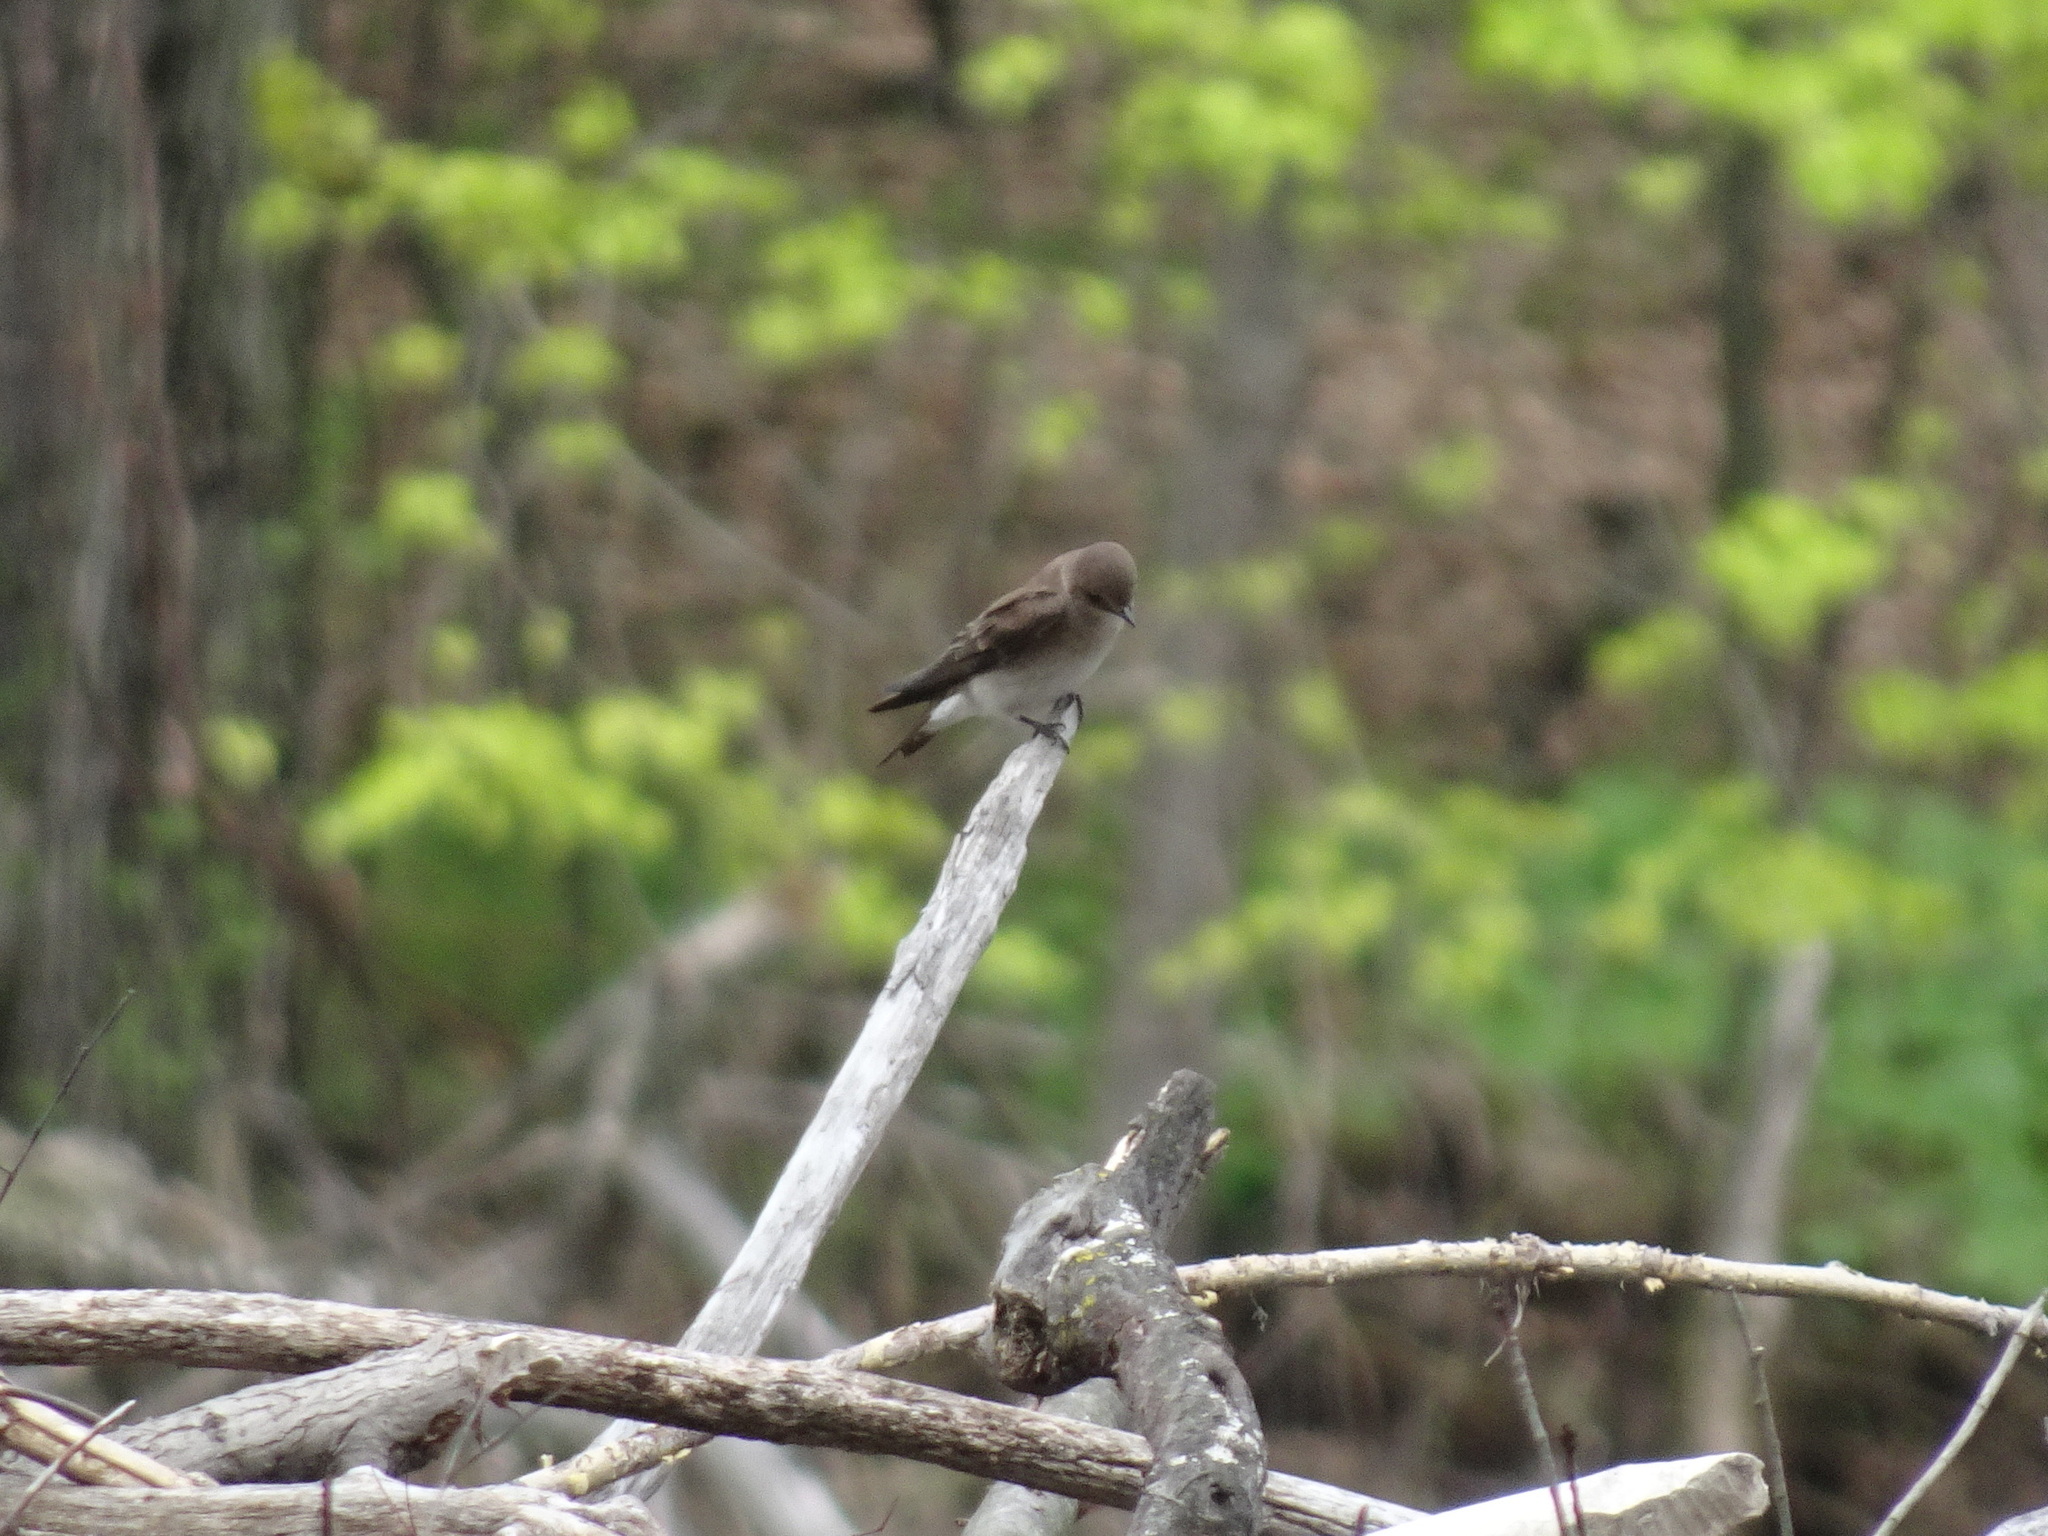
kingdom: Animalia
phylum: Chordata
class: Aves
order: Passeriformes
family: Hirundinidae
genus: Stelgidopteryx
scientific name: Stelgidopteryx serripennis
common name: Northern rough-winged swallow
